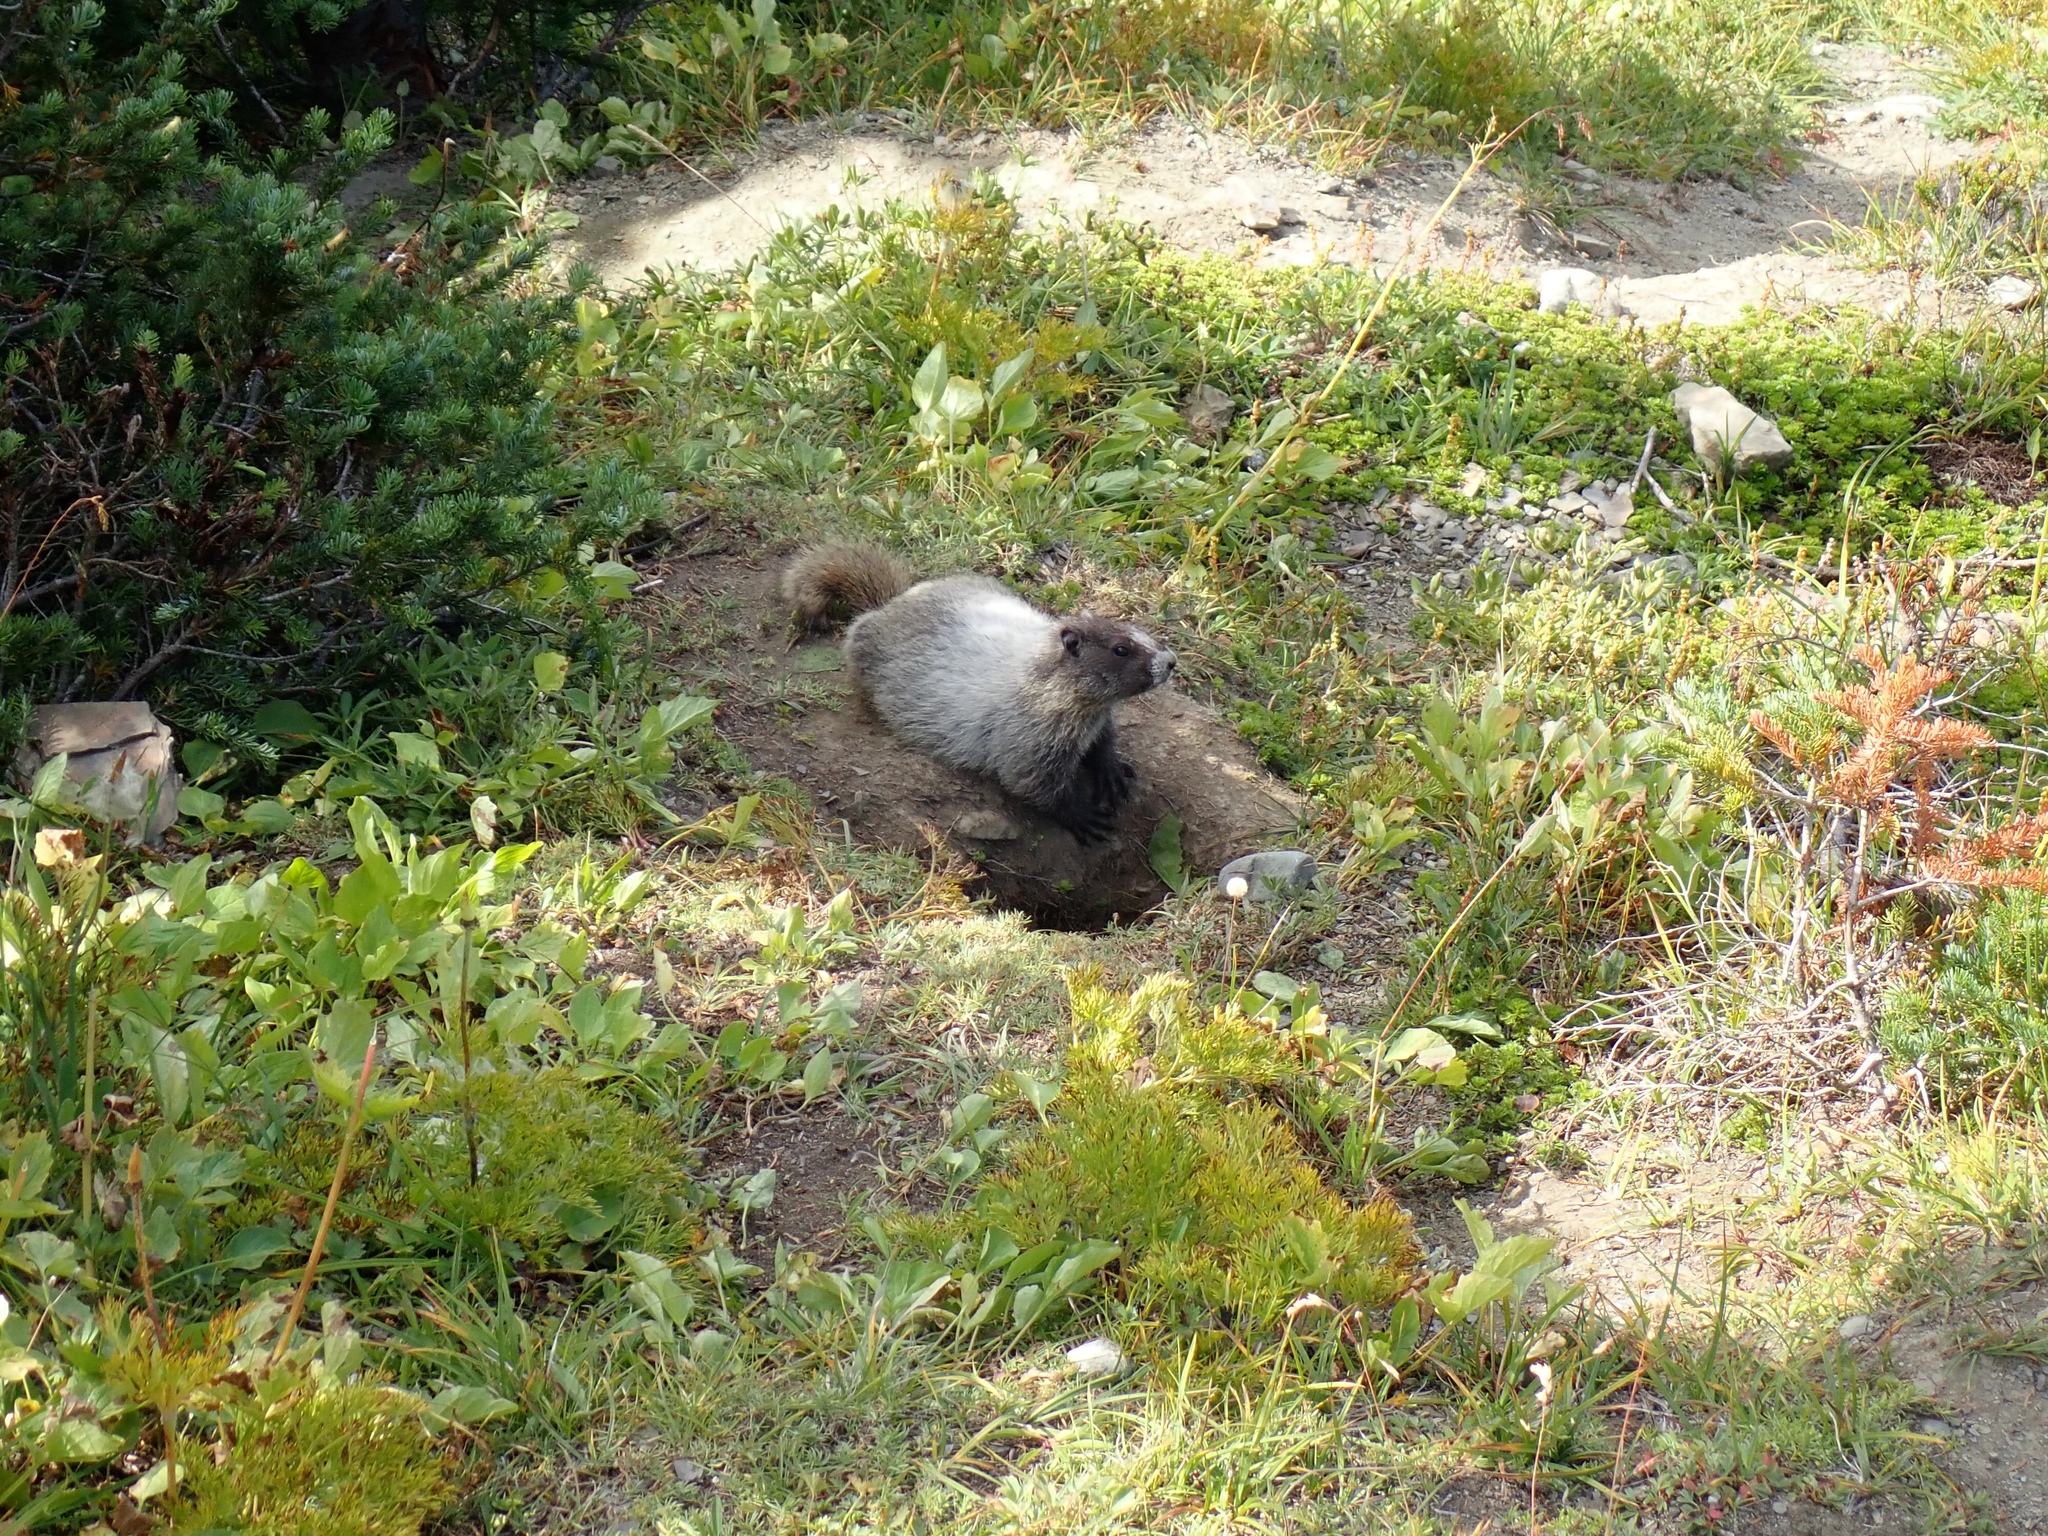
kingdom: Animalia
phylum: Chordata
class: Mammalia
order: Rodentia
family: Sciuridae
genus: Marmota
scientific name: Marmota caligata
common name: Hoary marmot
